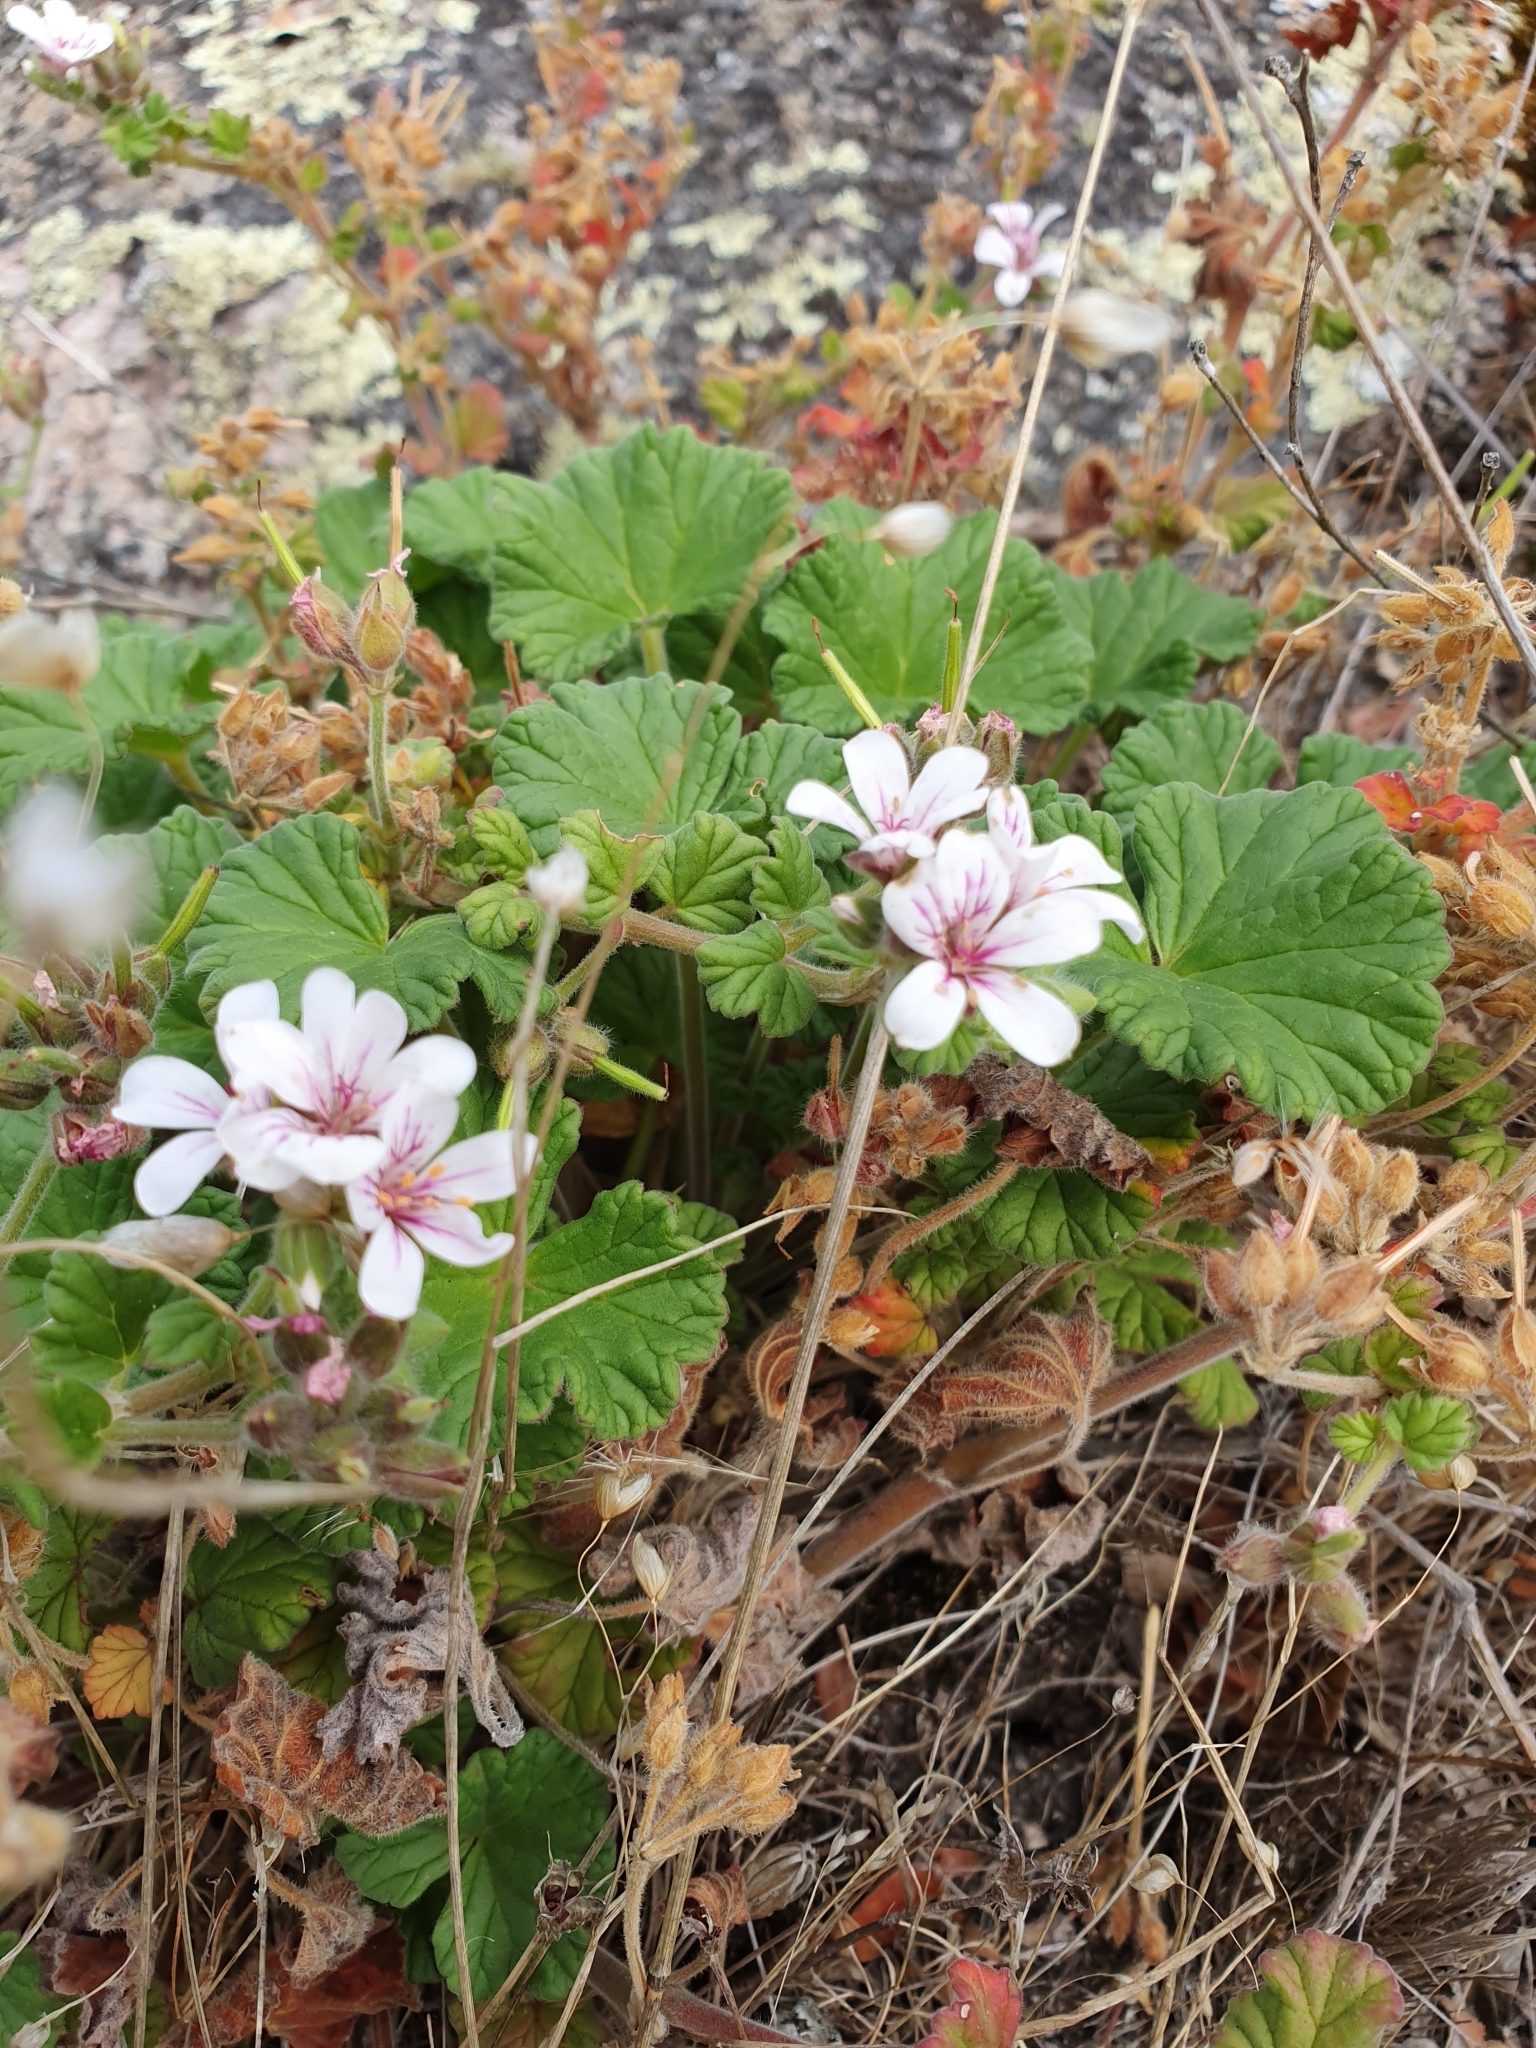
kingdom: Plantae
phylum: Tracheophyta
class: Magnoliopsida
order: Geraniales
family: Geraniaceae
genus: Pelargonium
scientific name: Pelargonium australe
